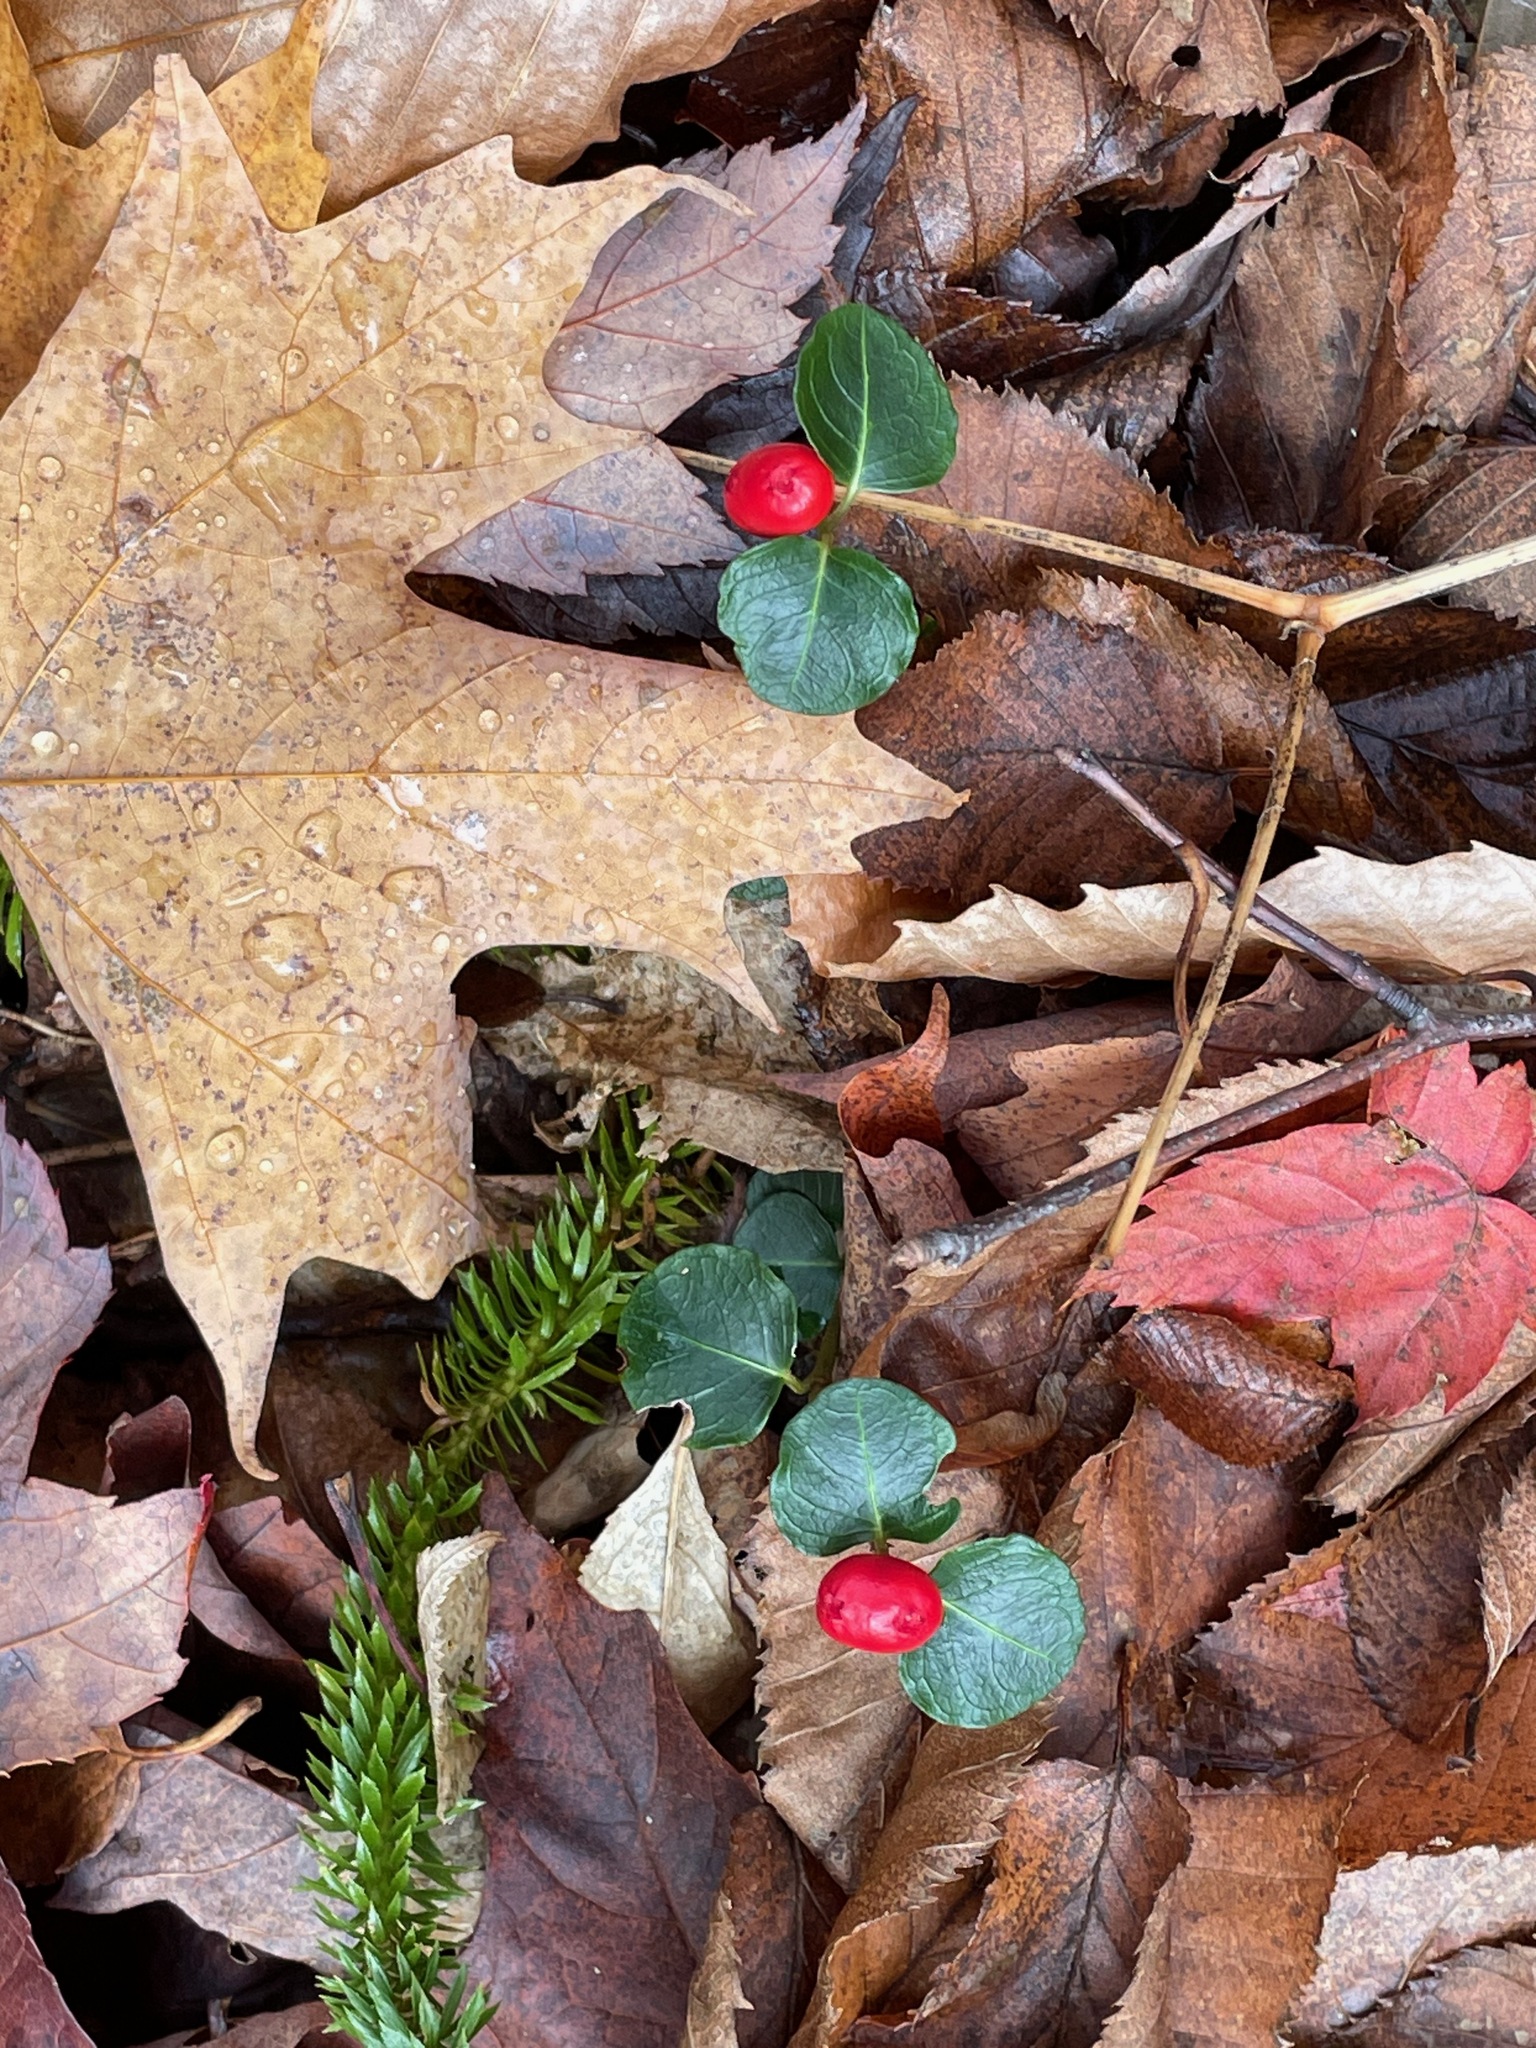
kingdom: Plantae
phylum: Tracheophyta
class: Magnoliopsida
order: Gentianales
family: Rubiaceae
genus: Mitchella
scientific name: Mitchella repens
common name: Partridge-berry
